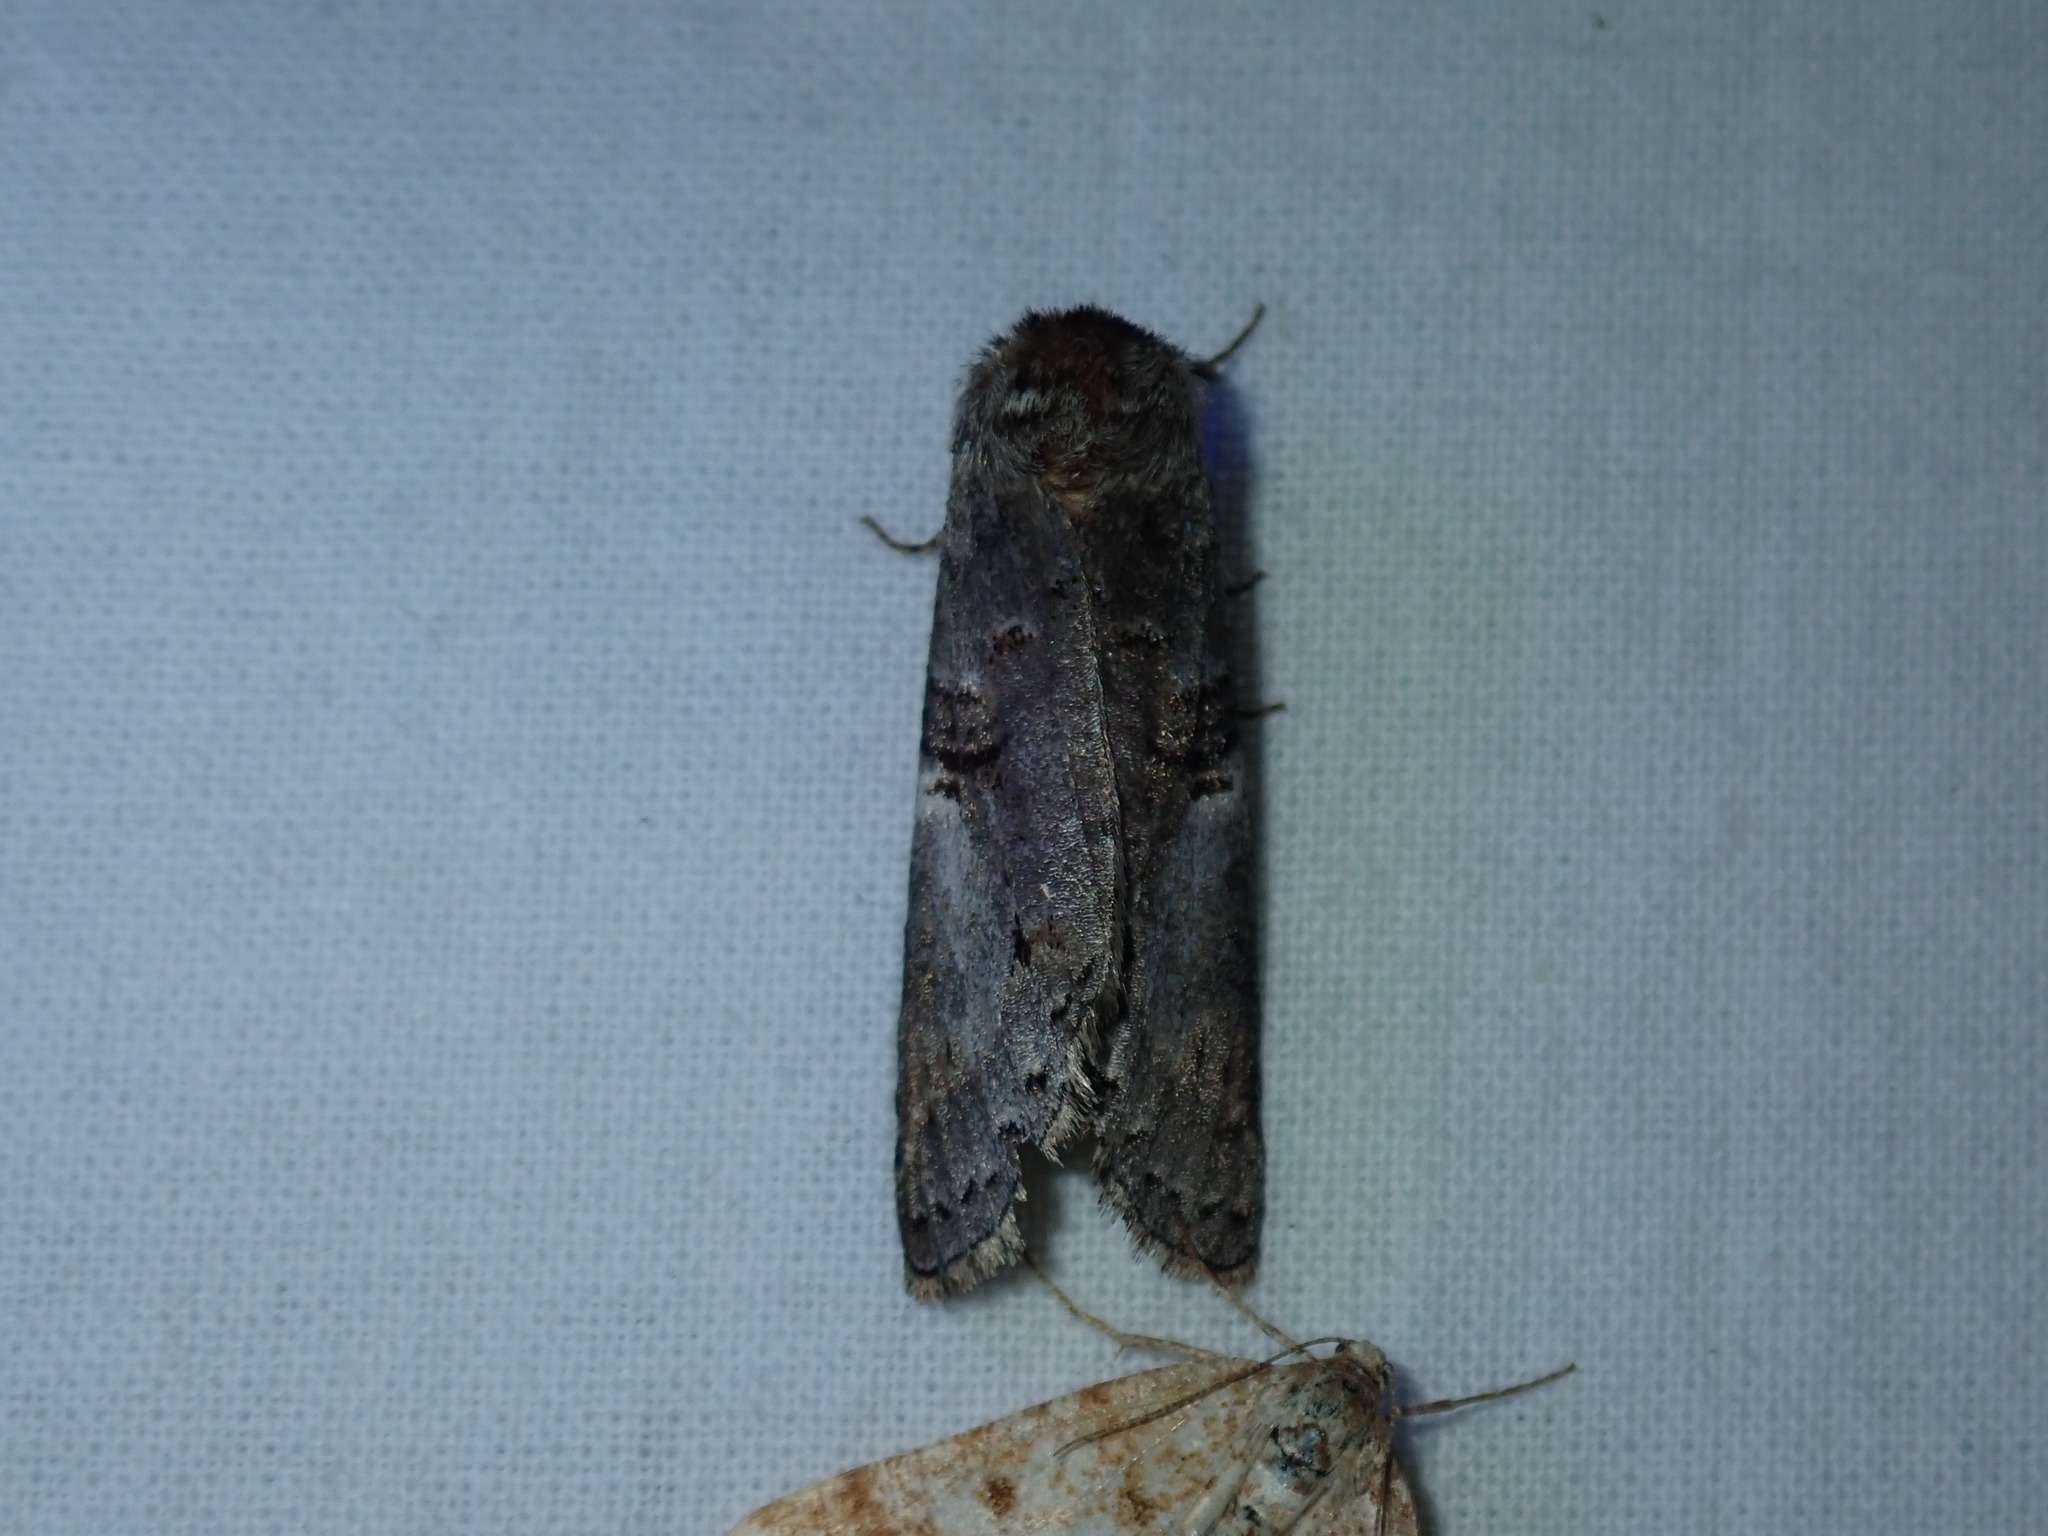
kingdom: Animalia
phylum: Arthropoda
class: Insecta
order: Lepidoptera
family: Notodontidae
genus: Ellida
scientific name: Ellida caniplaga
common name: Linden prominent
